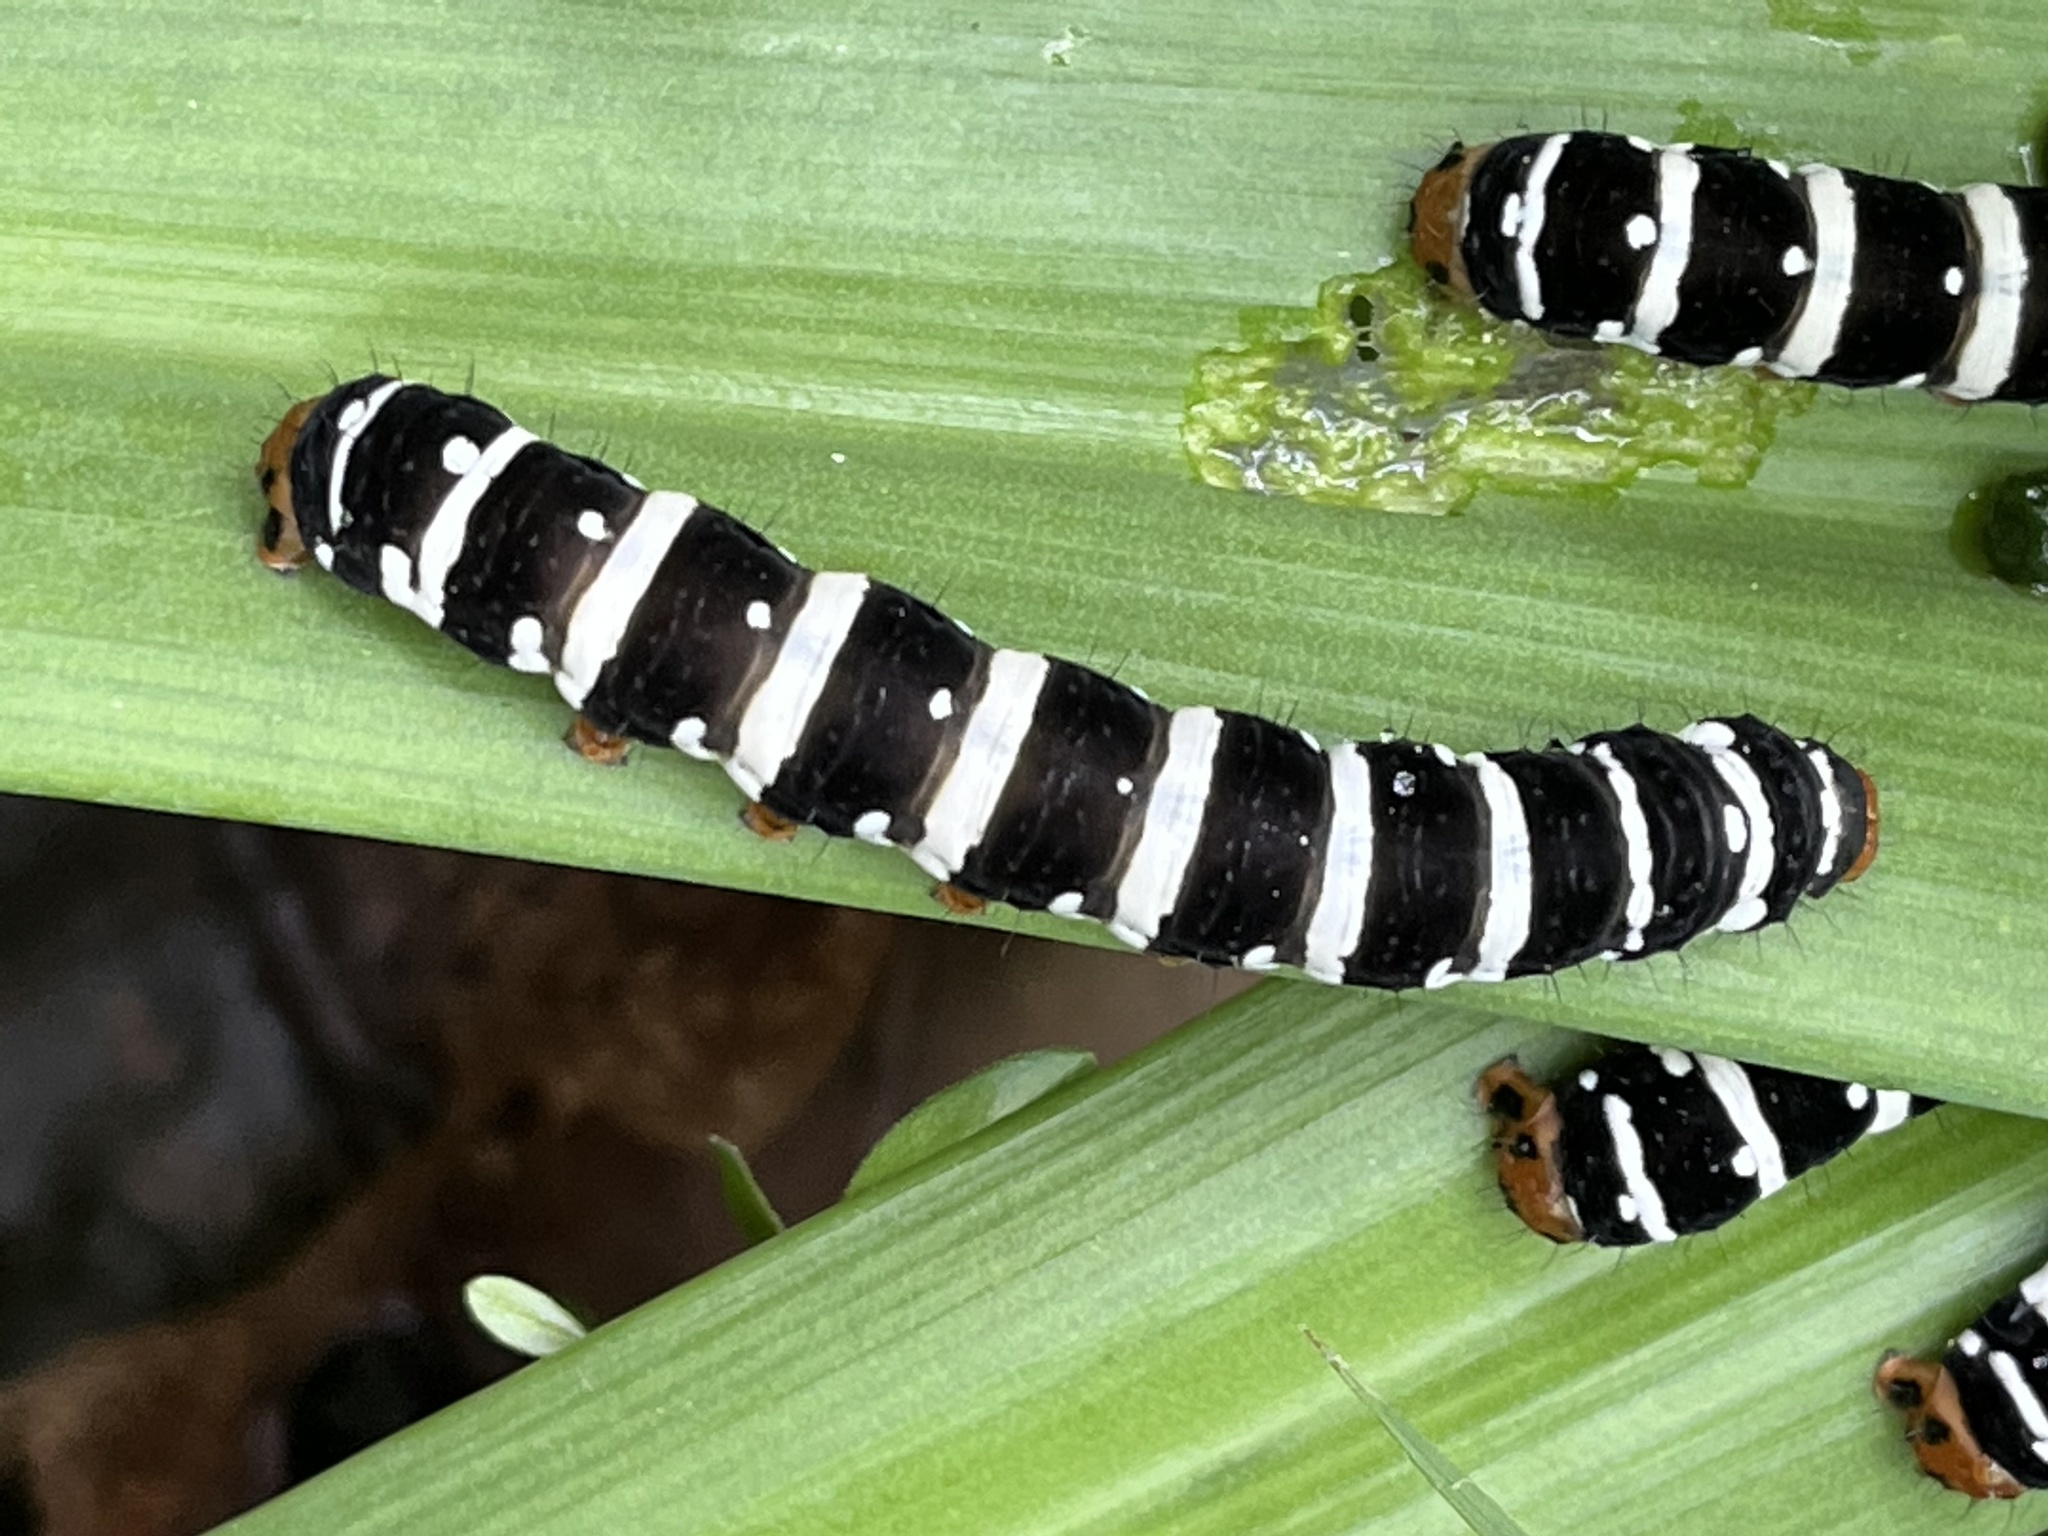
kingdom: Animalia
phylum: Arthropoda
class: Insecta
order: Lepidoptera
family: Noctuidae
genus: Xanthopastis
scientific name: Xanthopastis regnatrix
